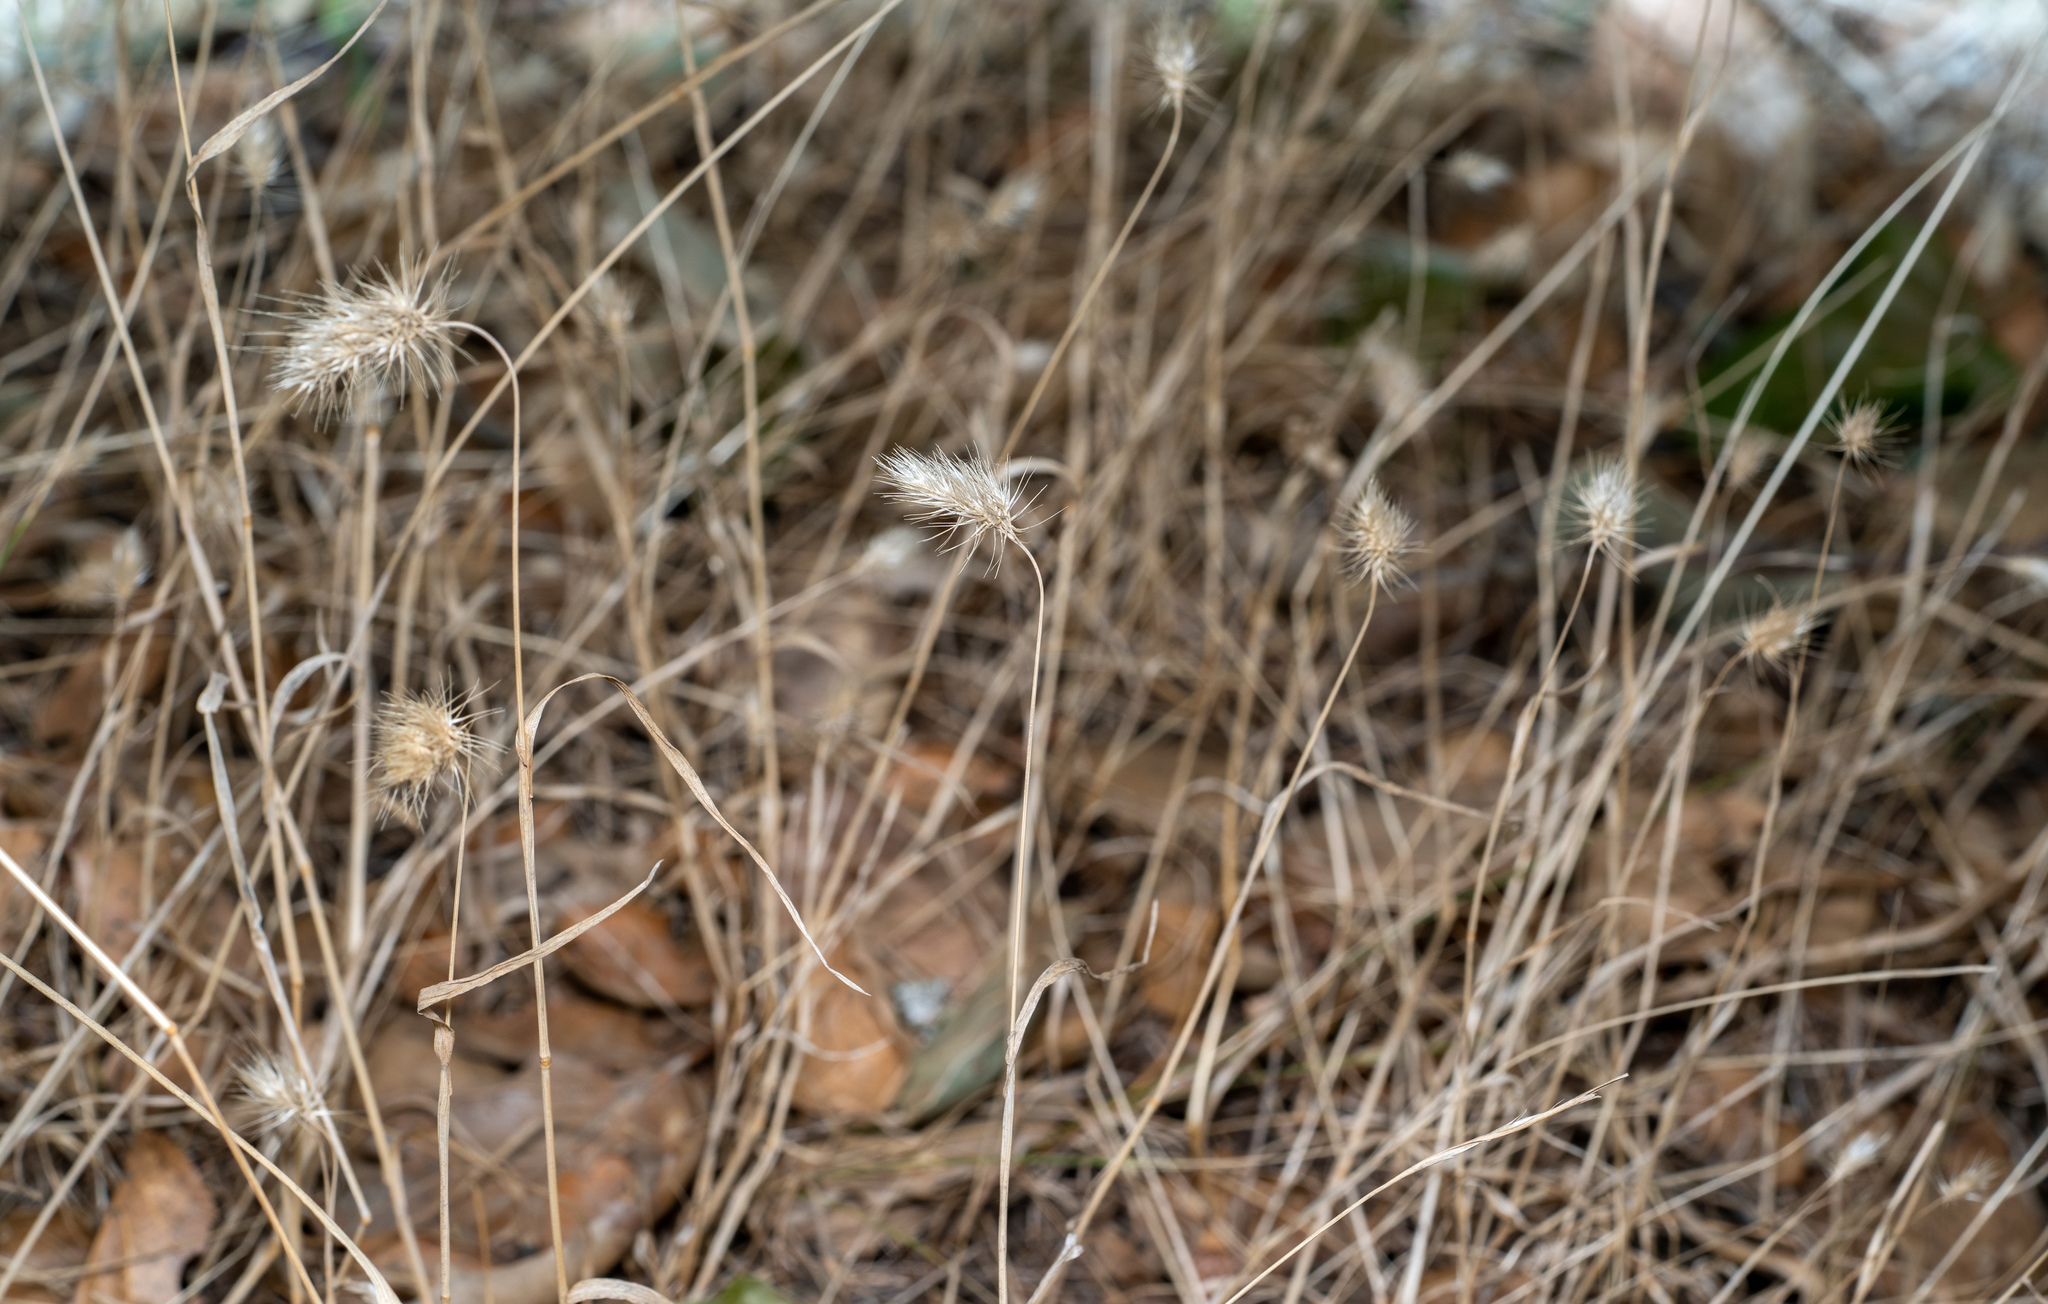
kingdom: Plantae
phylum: Tracheophyta
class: Liliopsida
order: Poales
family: Poaceae
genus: Cynosurus
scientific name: Cynosurus echinatus
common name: Rough dog's-tail
